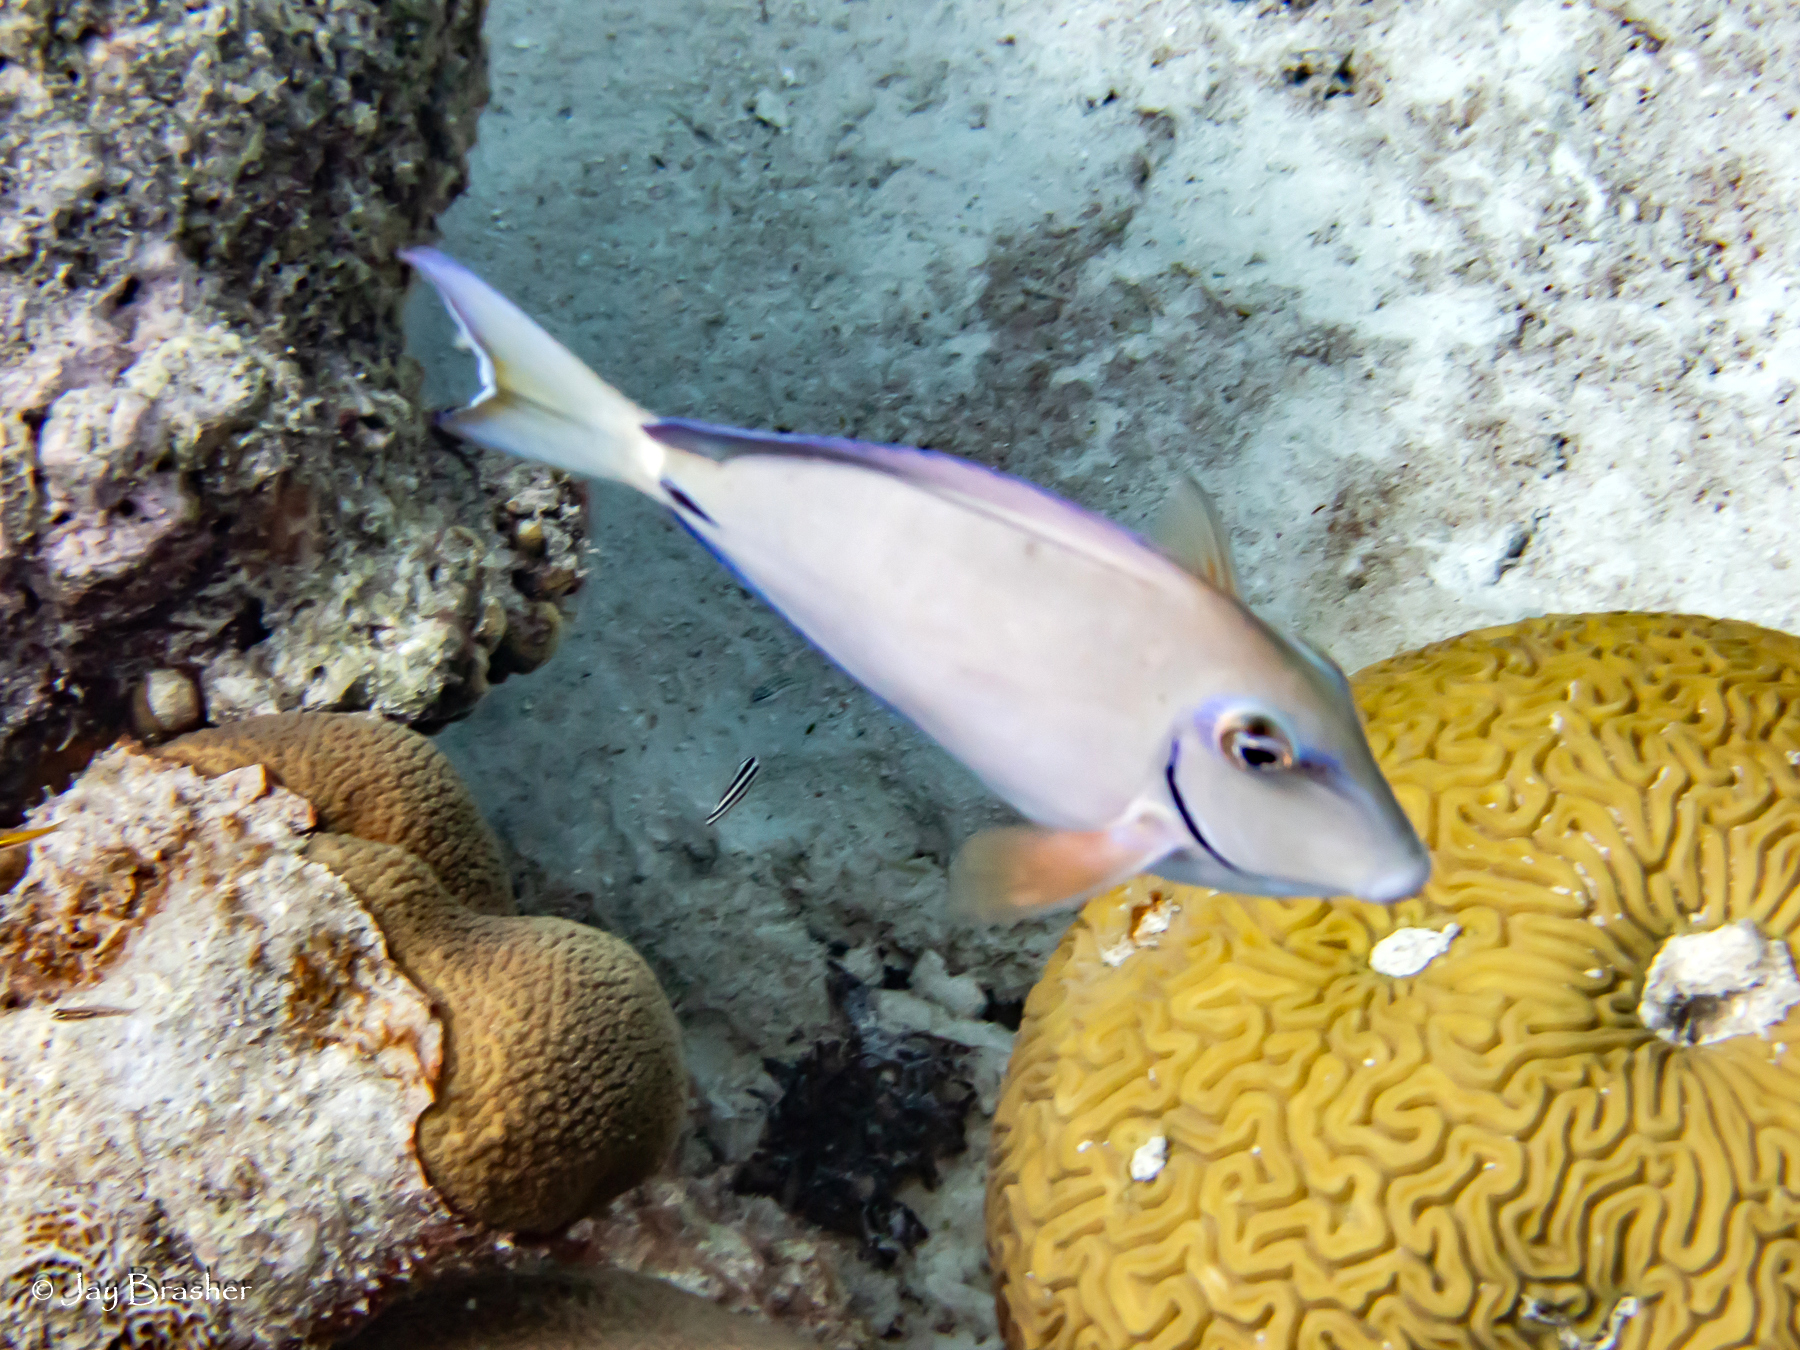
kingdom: Animalia
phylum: Cnidaria
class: Anthozoa
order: Scleractinia
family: Faviidae
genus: Diploria
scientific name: Diploria labyrinthiformis
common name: Grooved brain coral
